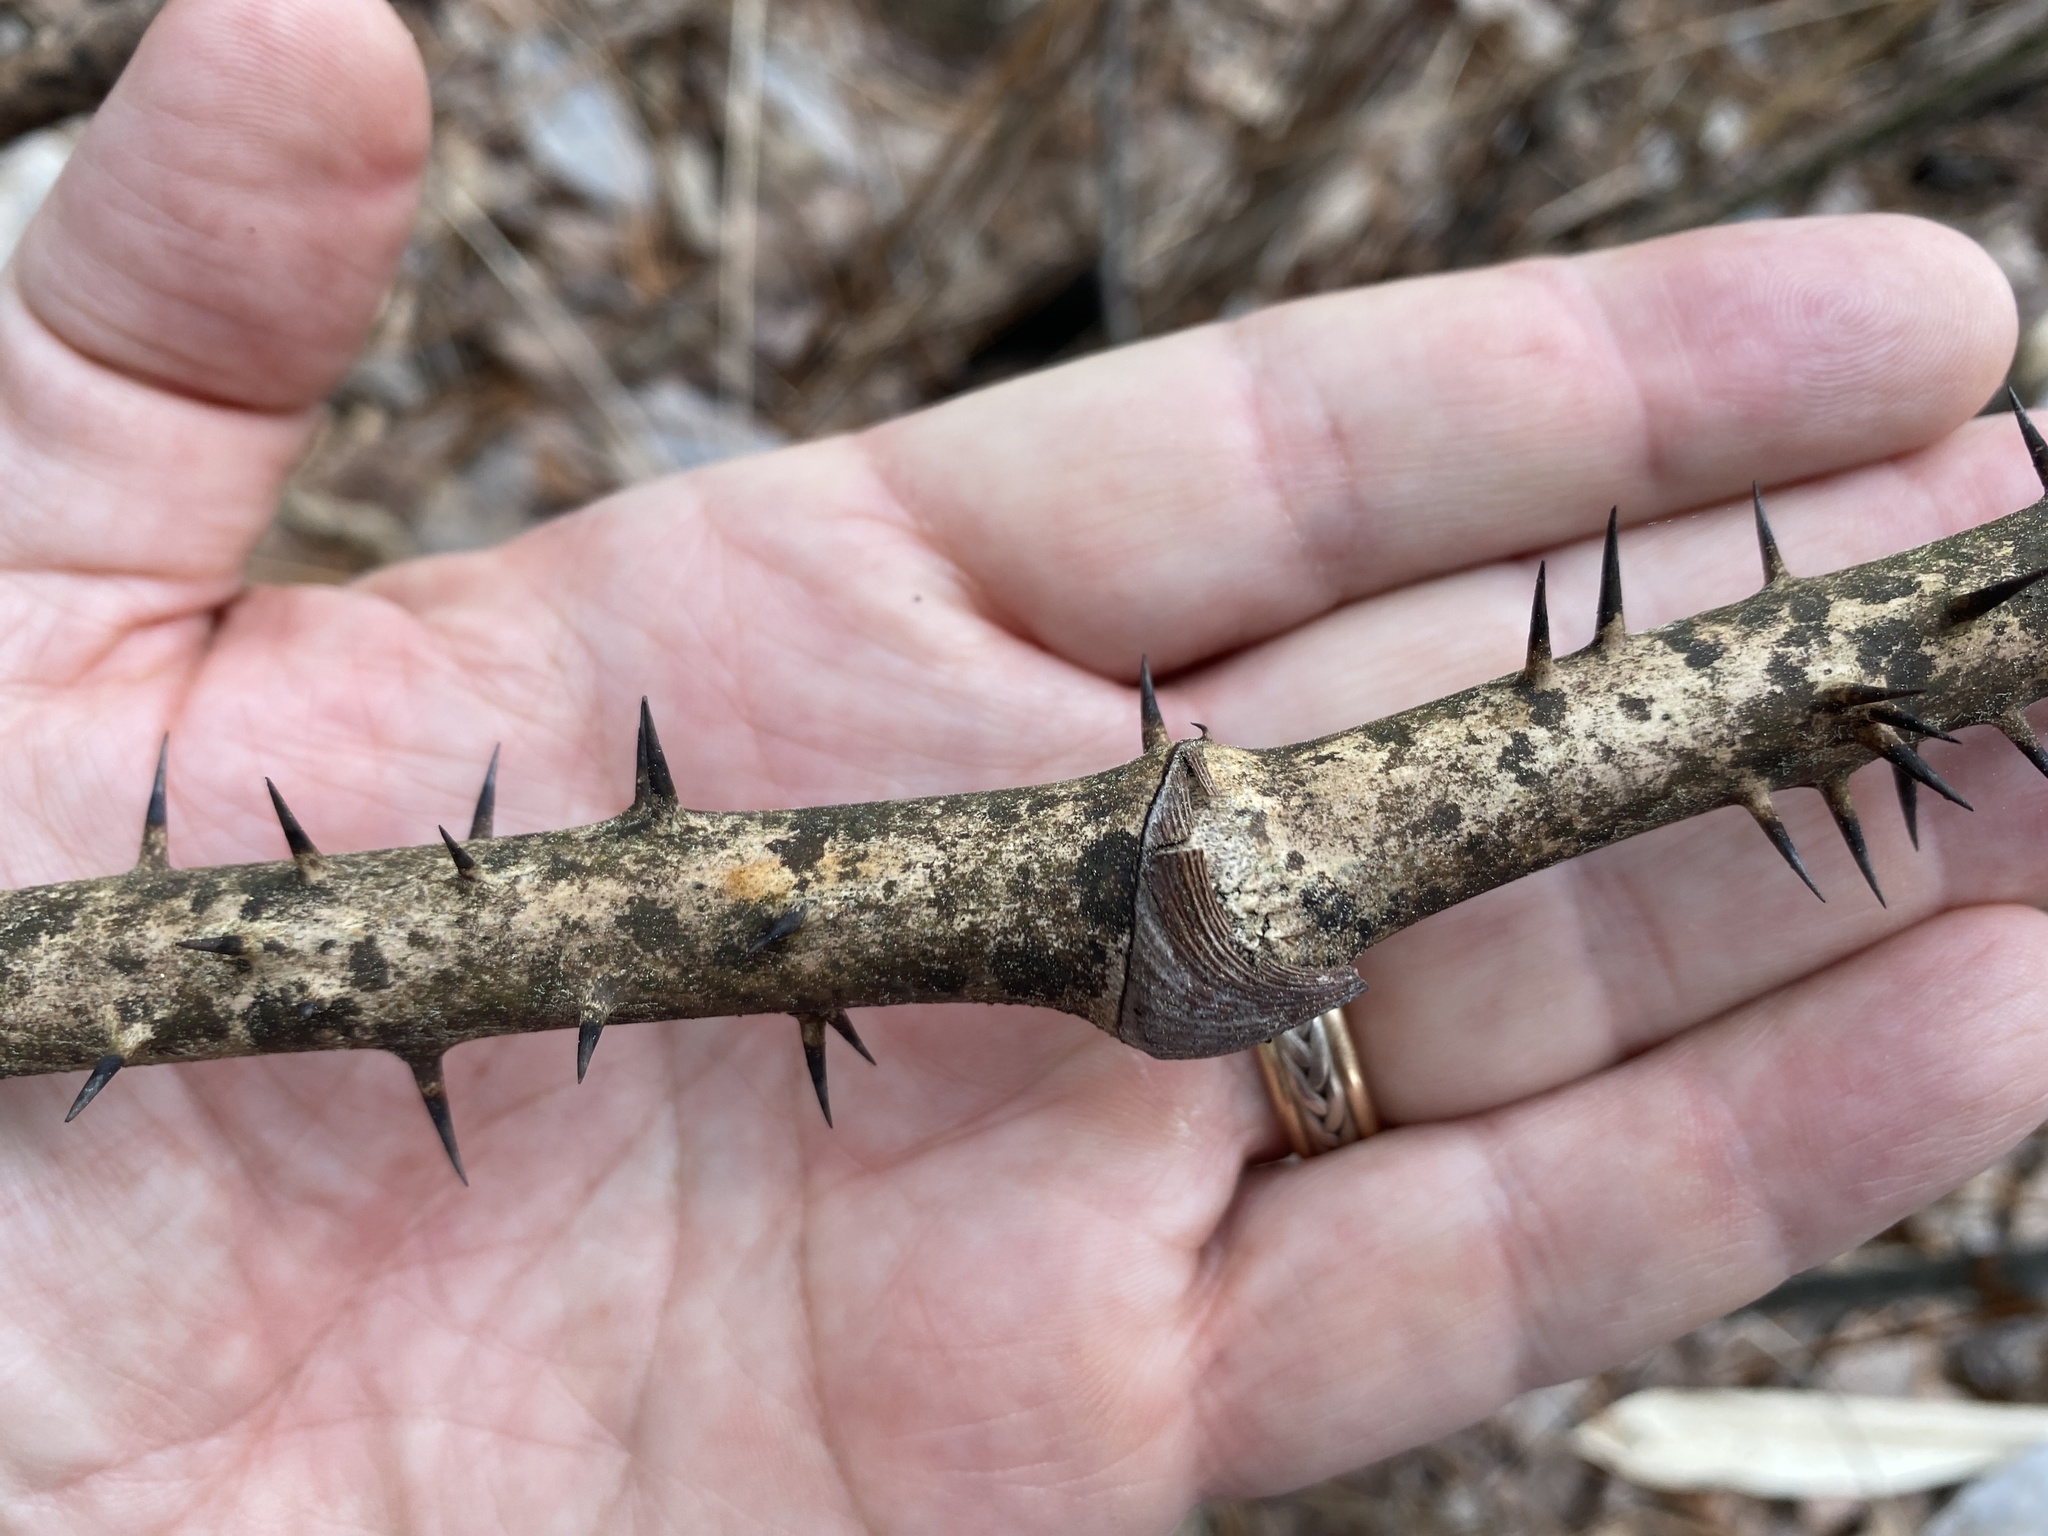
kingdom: Plantae
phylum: Tracheophyta
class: Liliopsida
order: Liliales
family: Smilacaceae
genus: Smilax
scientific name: Smilax laurifolia
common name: Bamboovine
